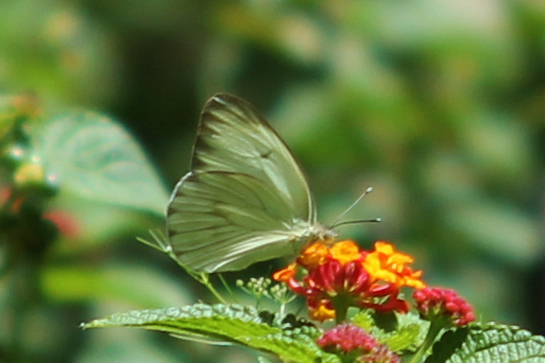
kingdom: Animalia
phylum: Arthropoda
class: Insecta
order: Lepidoptera
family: Pieridae
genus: Ascia
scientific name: Ascia monuste
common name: Great southern white
